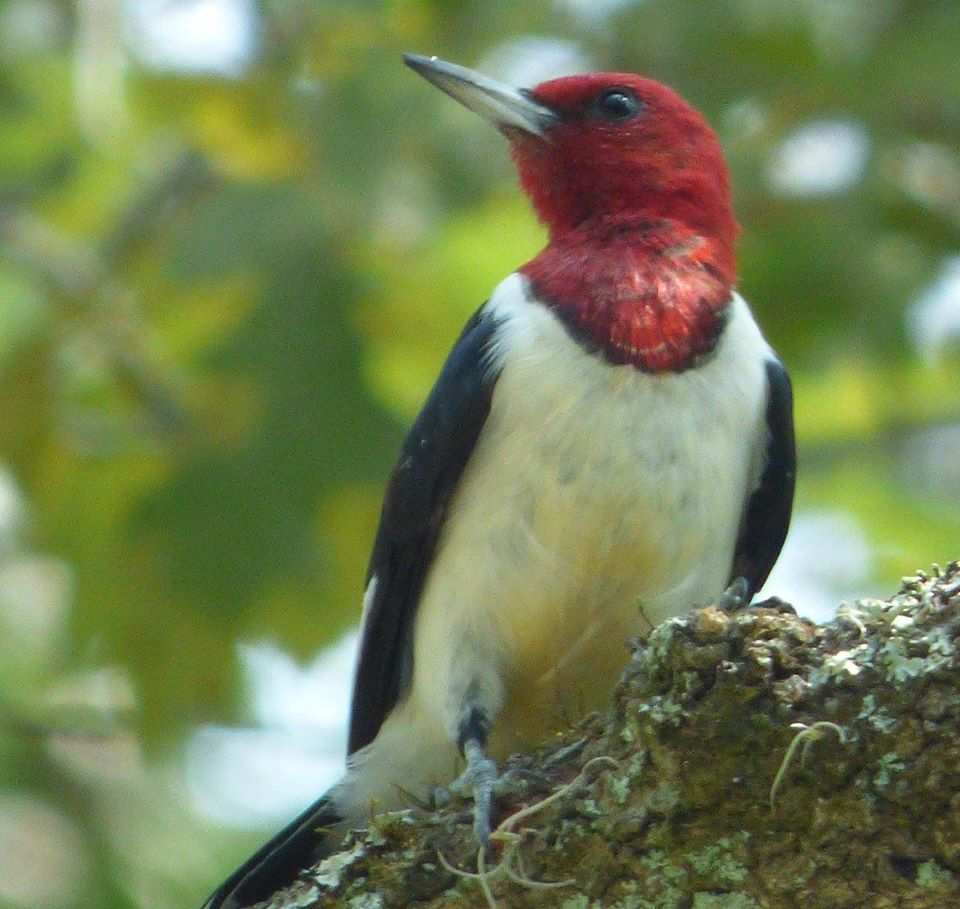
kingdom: Animalia
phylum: Chordata
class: Aves
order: Piciformes
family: Picidae
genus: Melanerpes
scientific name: Melanerpes erythrocephalus
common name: Red-headed woodpecker
